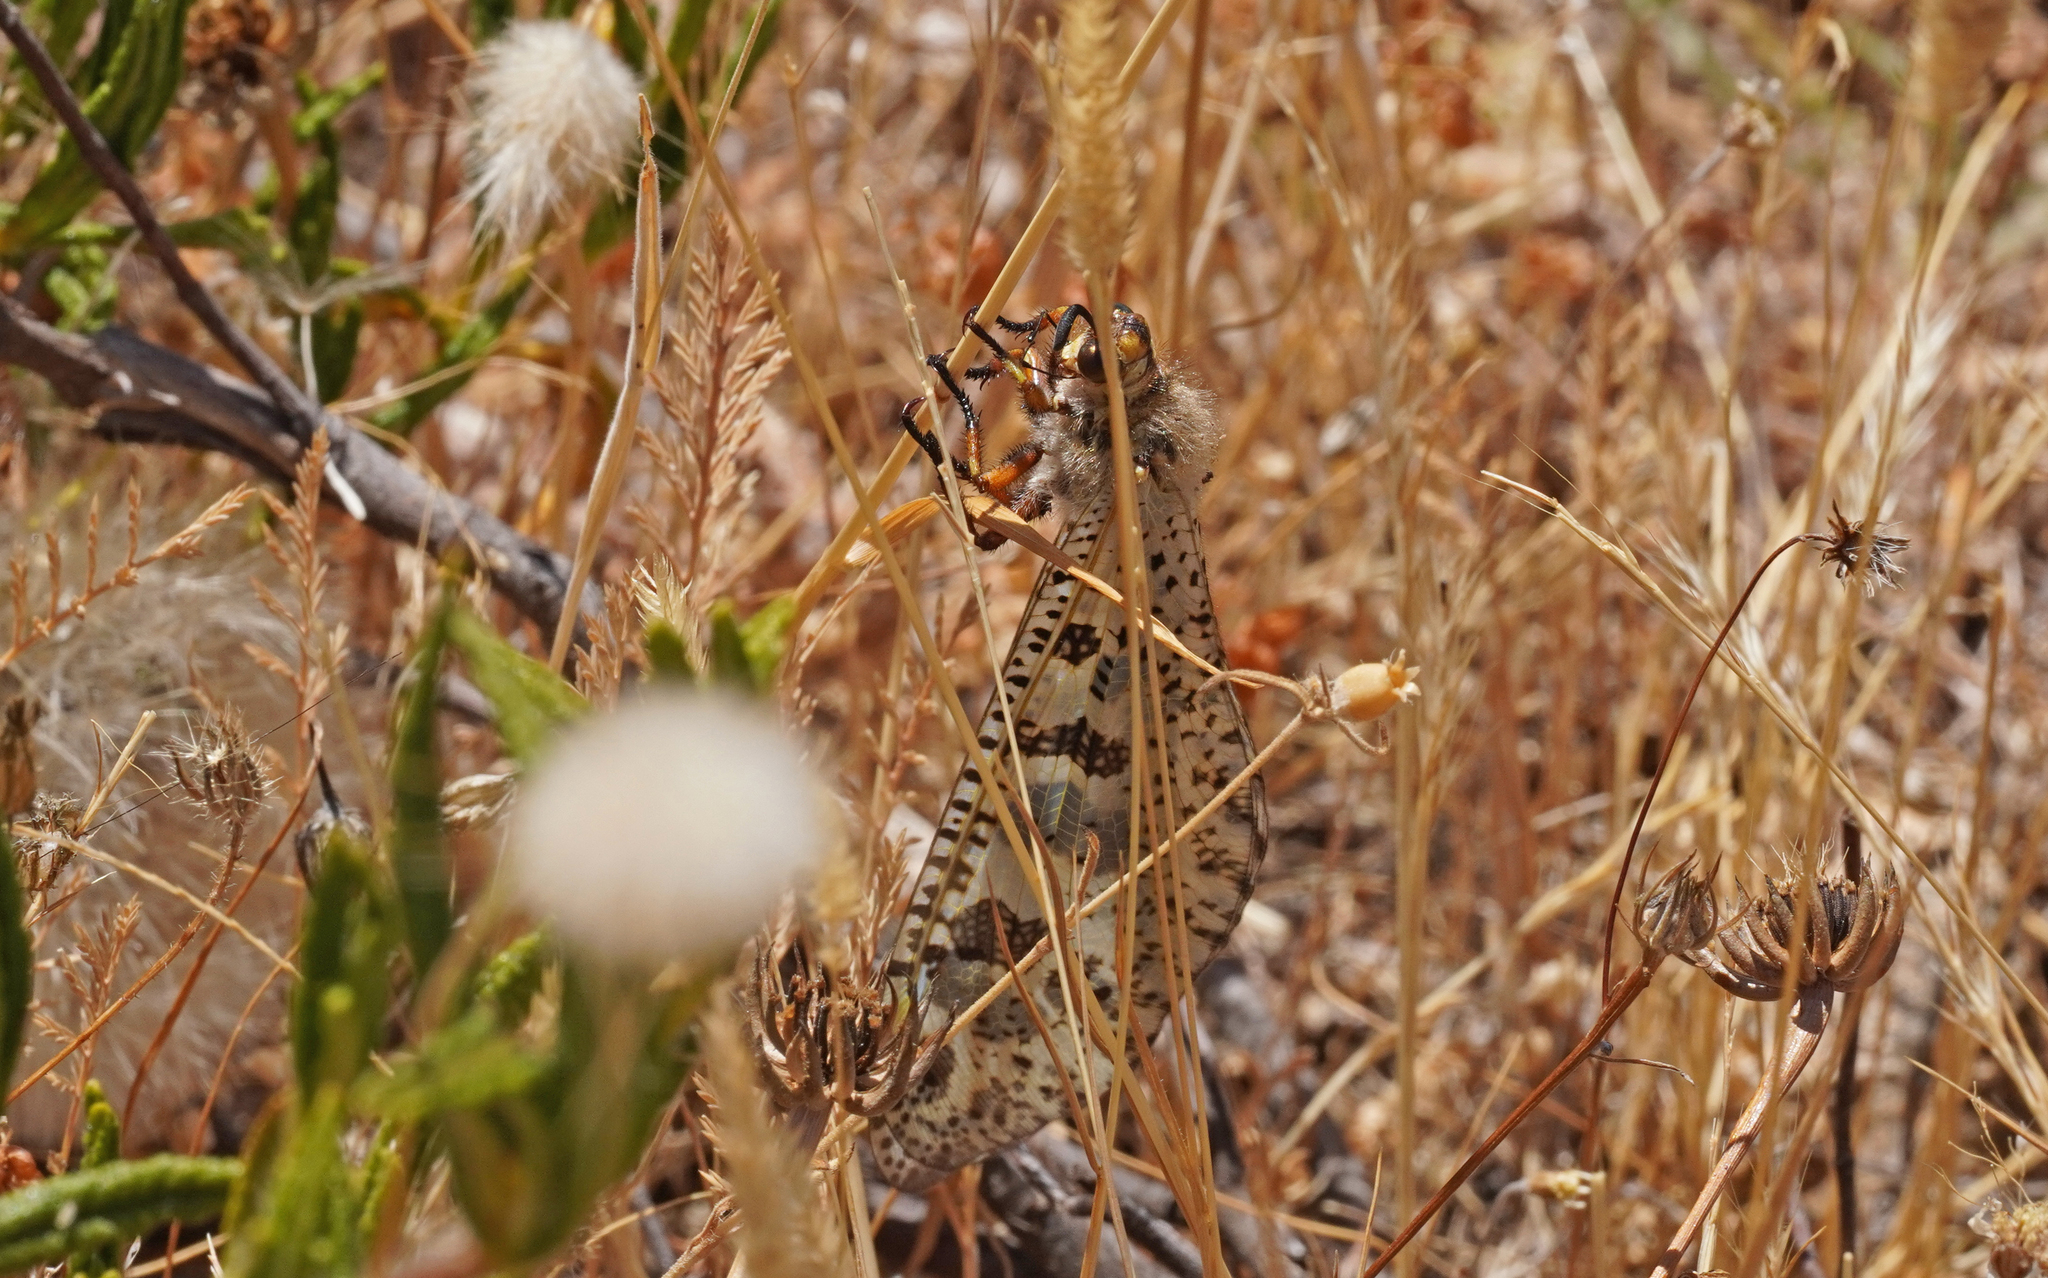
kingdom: Animalia
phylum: Arthropoda
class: Insecta
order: Neuroptera
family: Myrmeleontidae
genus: Palpares
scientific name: Palpares libelluloides
